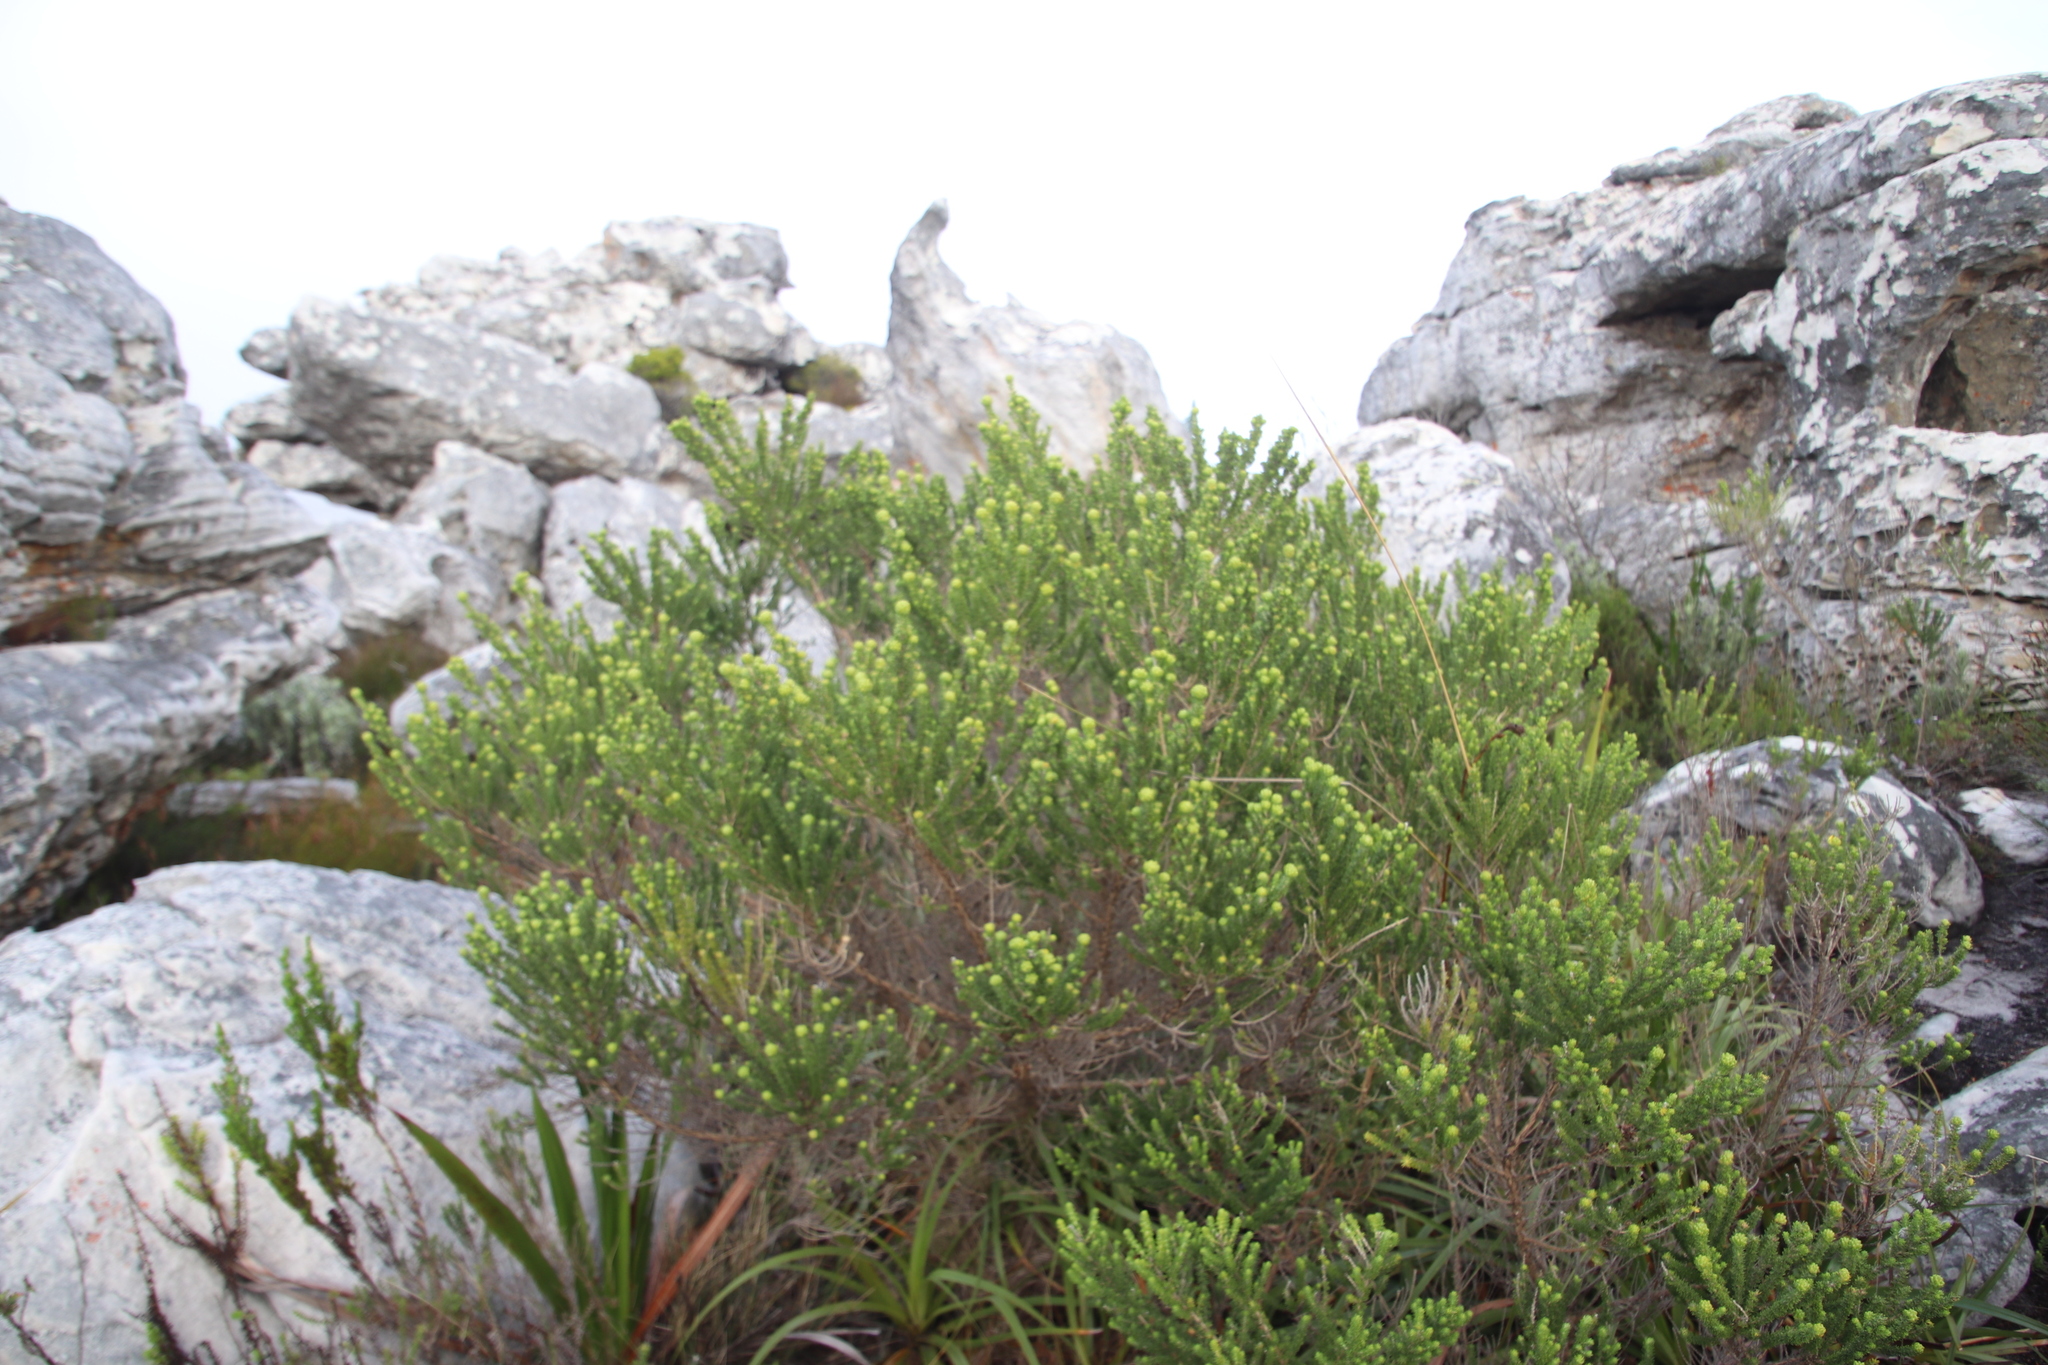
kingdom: Plantae
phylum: Tracheophyta
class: Magnoliopsida
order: Fabales
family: Fabaceae
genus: Aspalathus
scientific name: Aspalathus capitata
